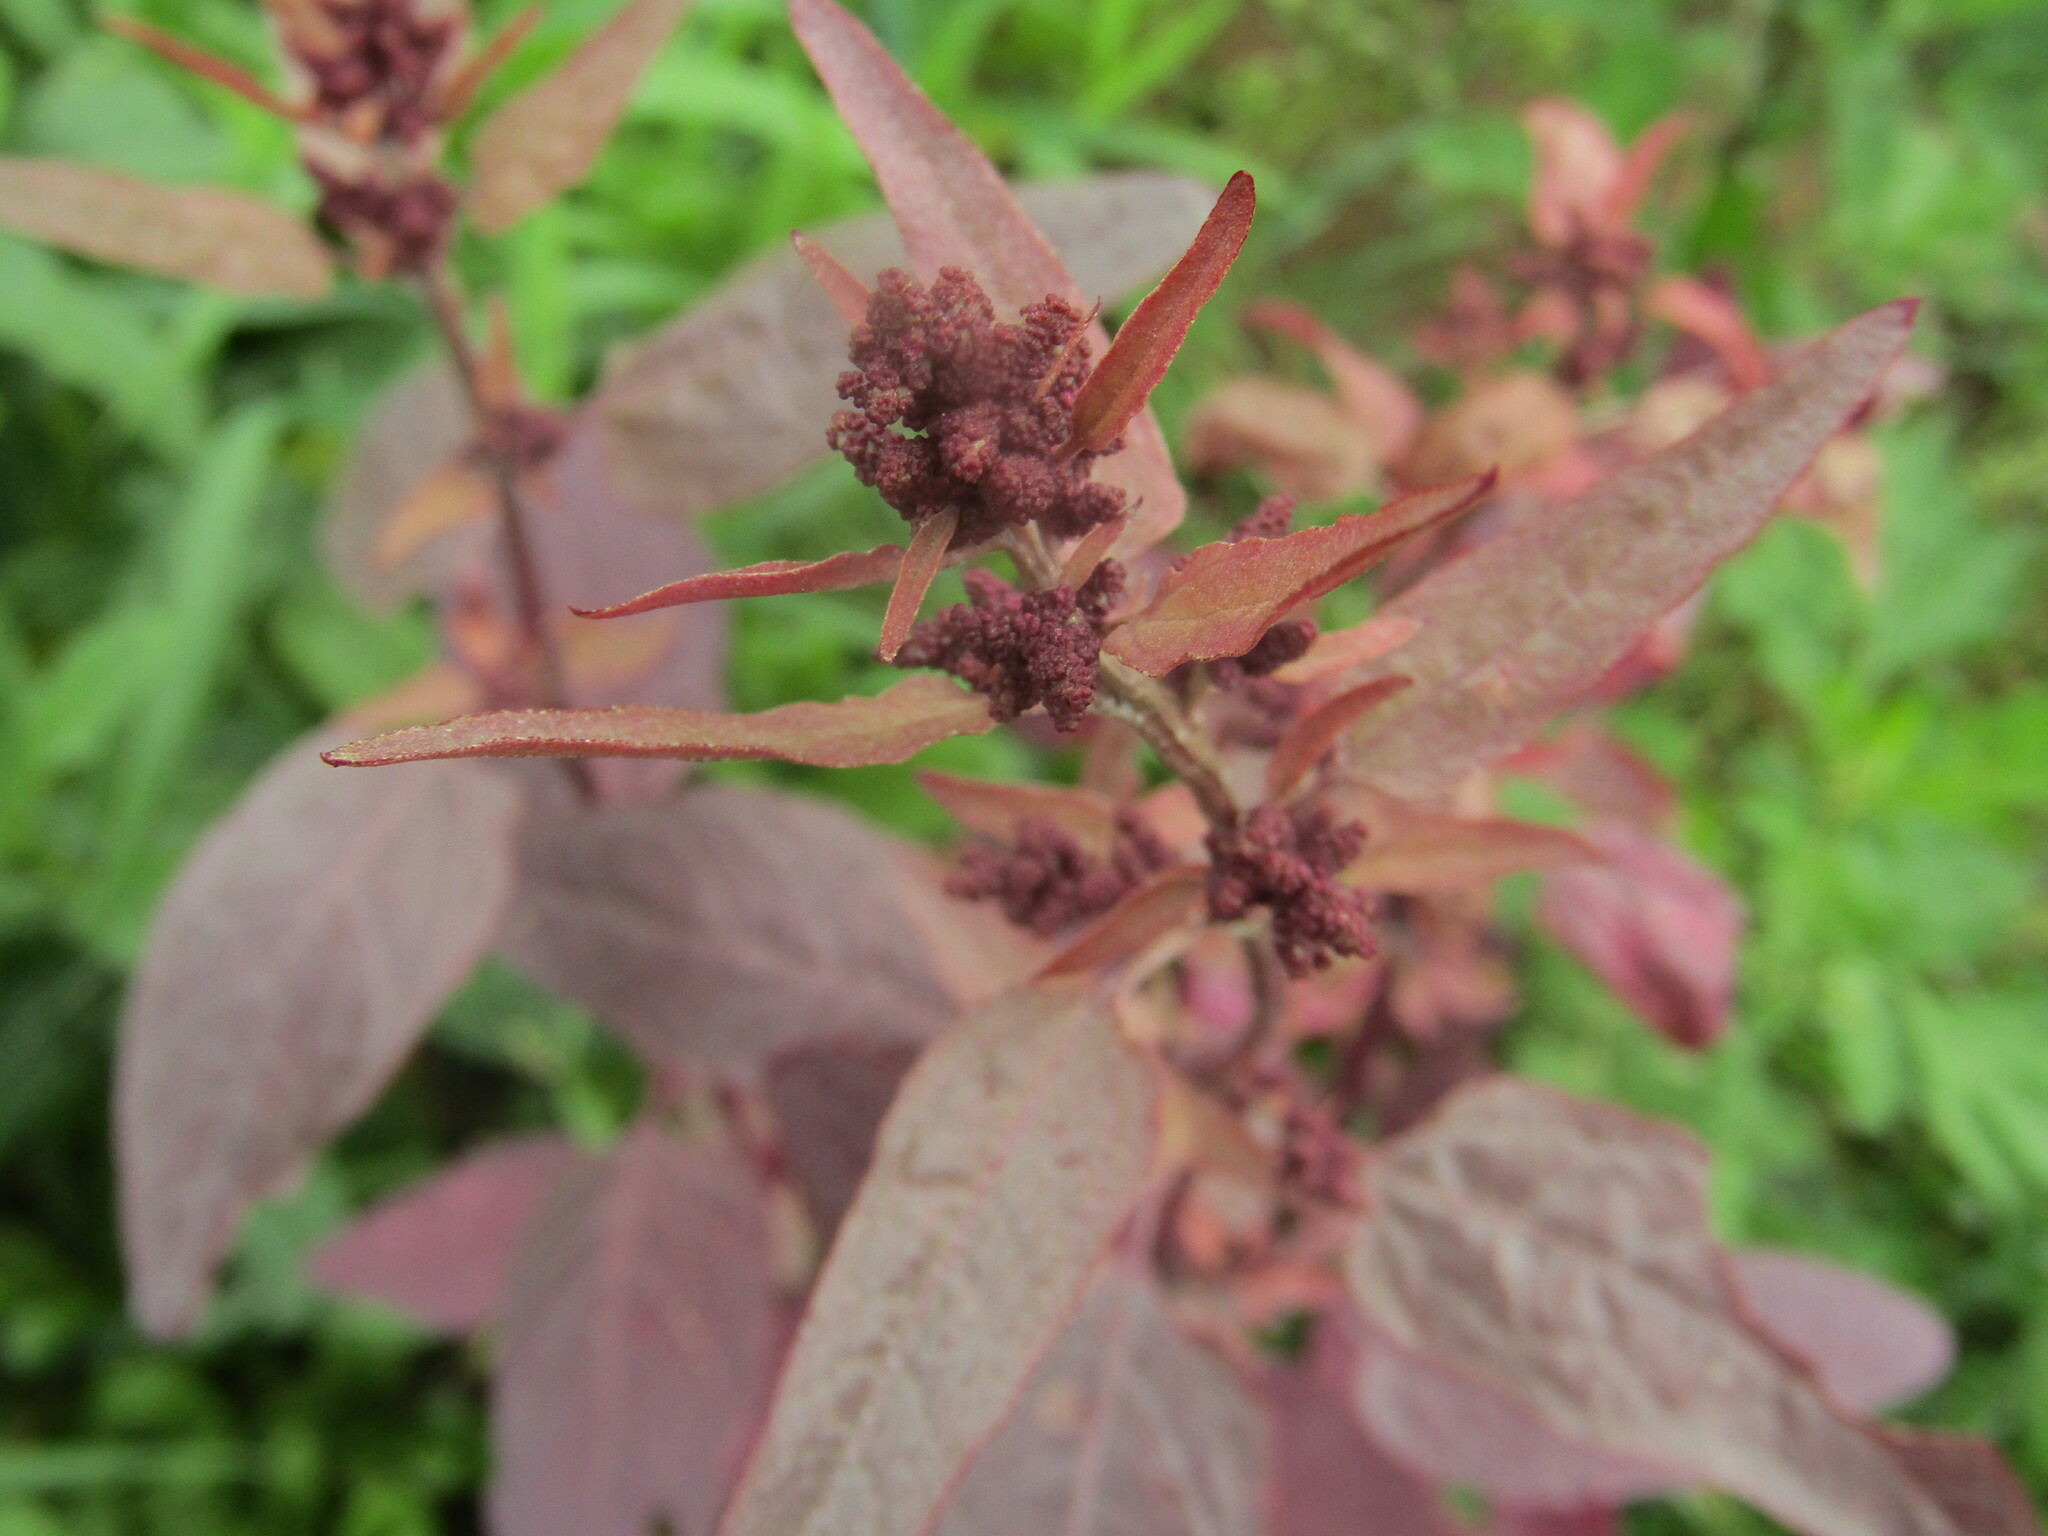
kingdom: Plantae
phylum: Tracheophyta
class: Magnoliopsida
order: Caryophyllales
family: Amaranthaceae
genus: Atriplex
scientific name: Atriplex hortensis
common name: Garden orache
